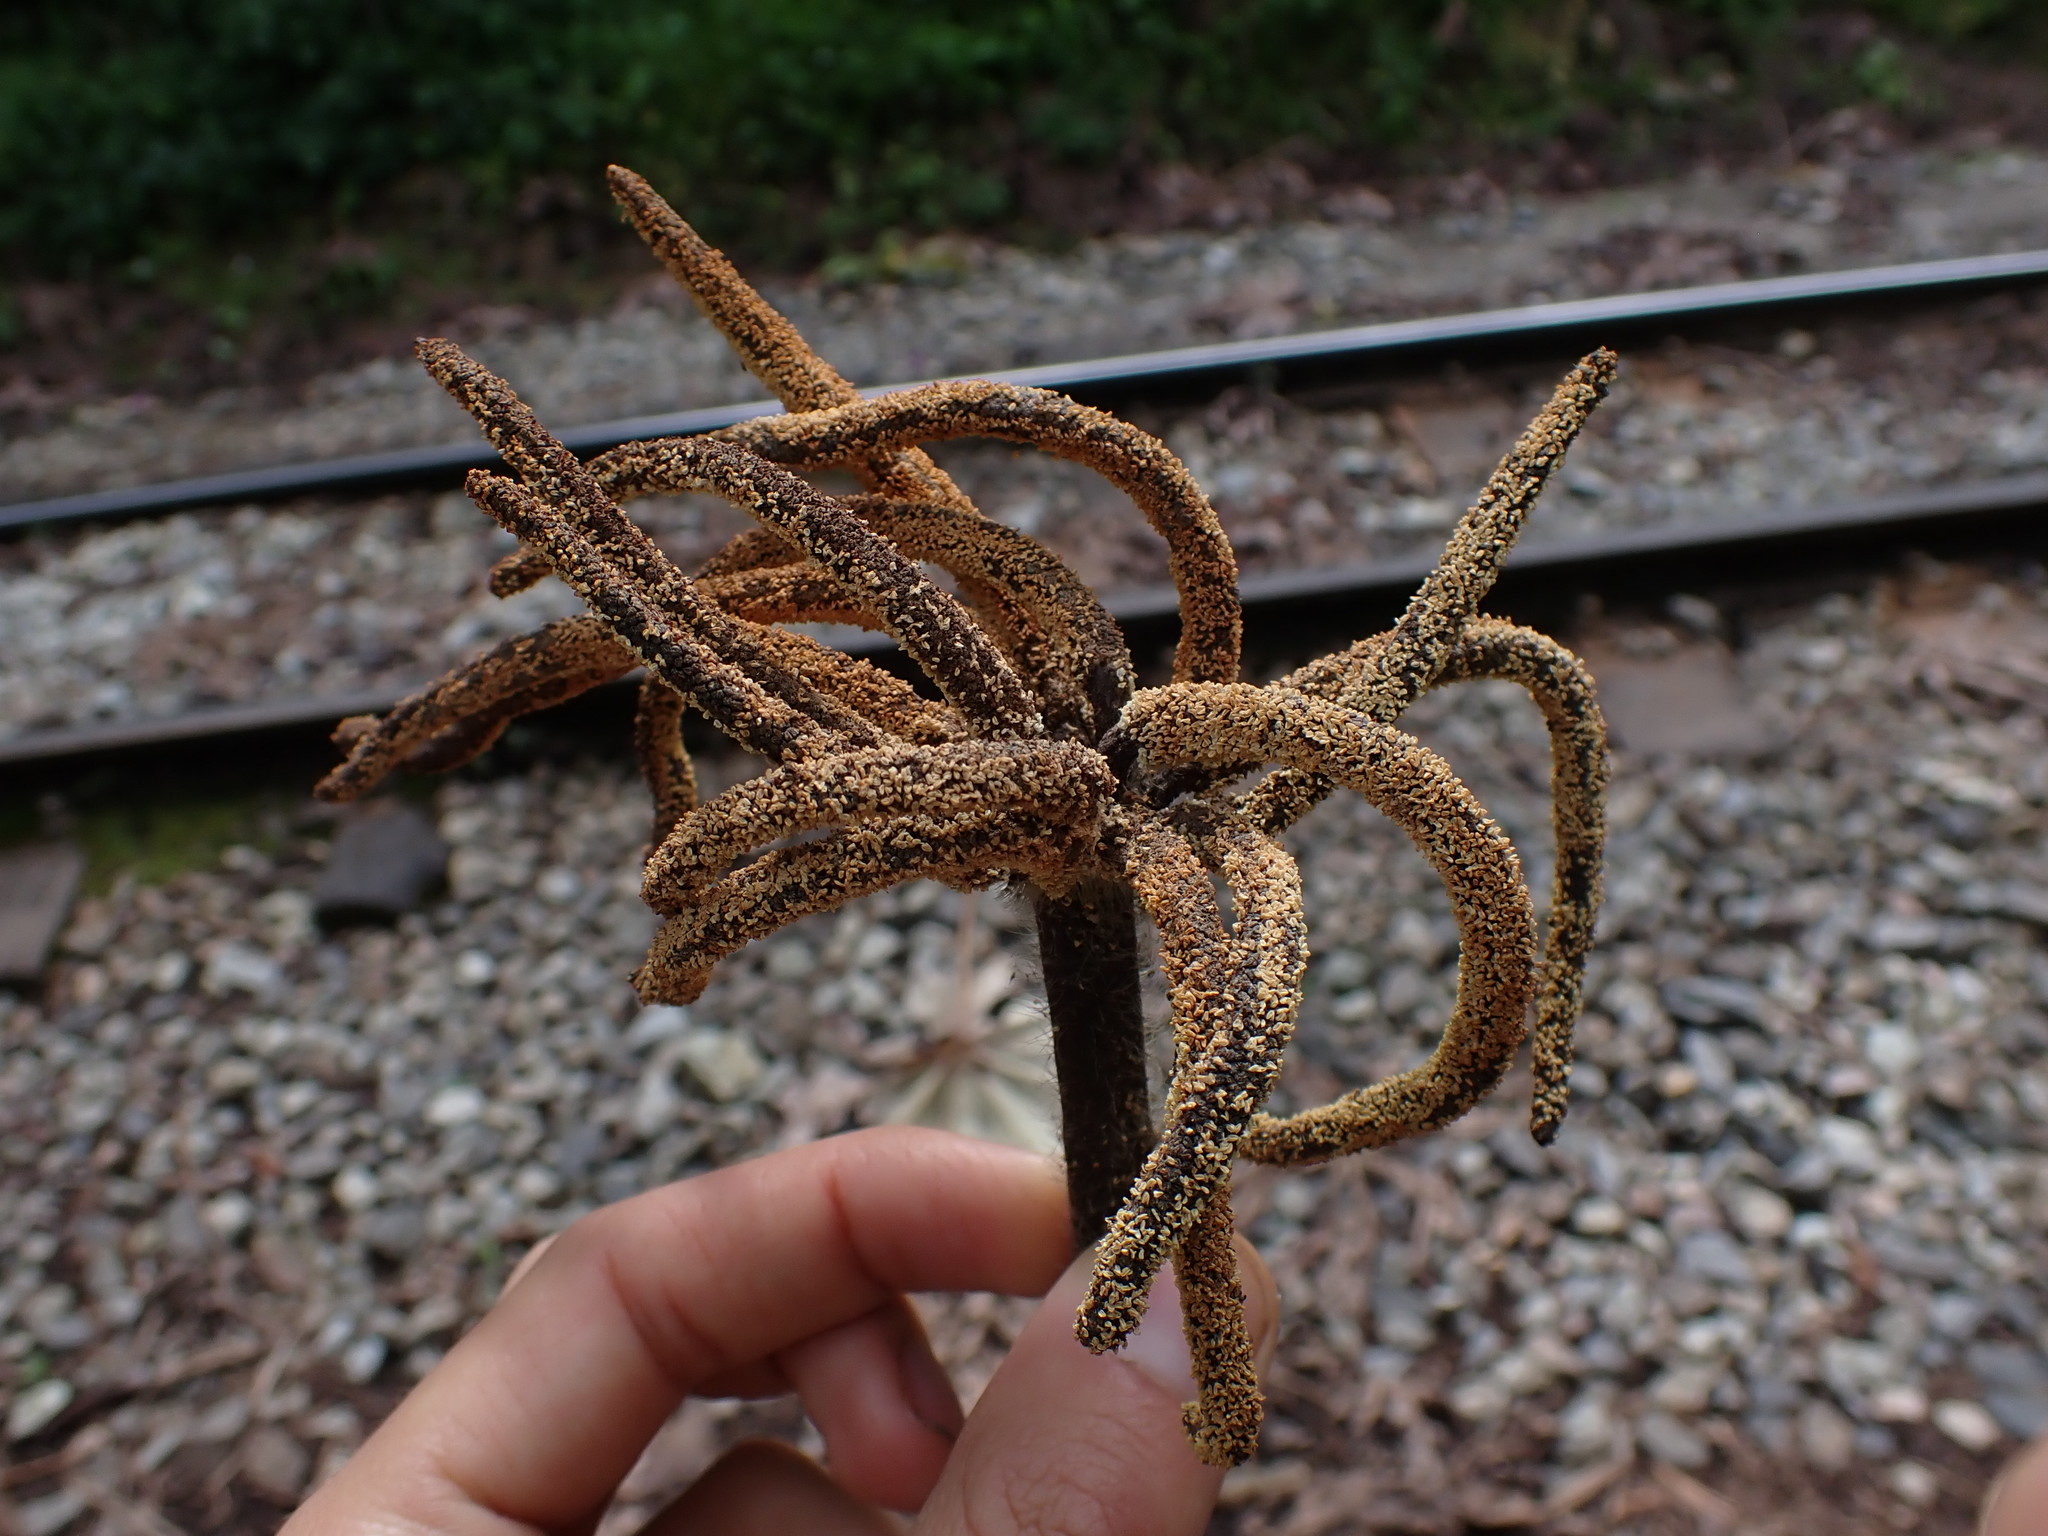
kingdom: Plantae
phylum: Tracheophyta
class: Magnoliopsida
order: Rosales
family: Urticaceae
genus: Cecropia
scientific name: Cecropia strigosa
